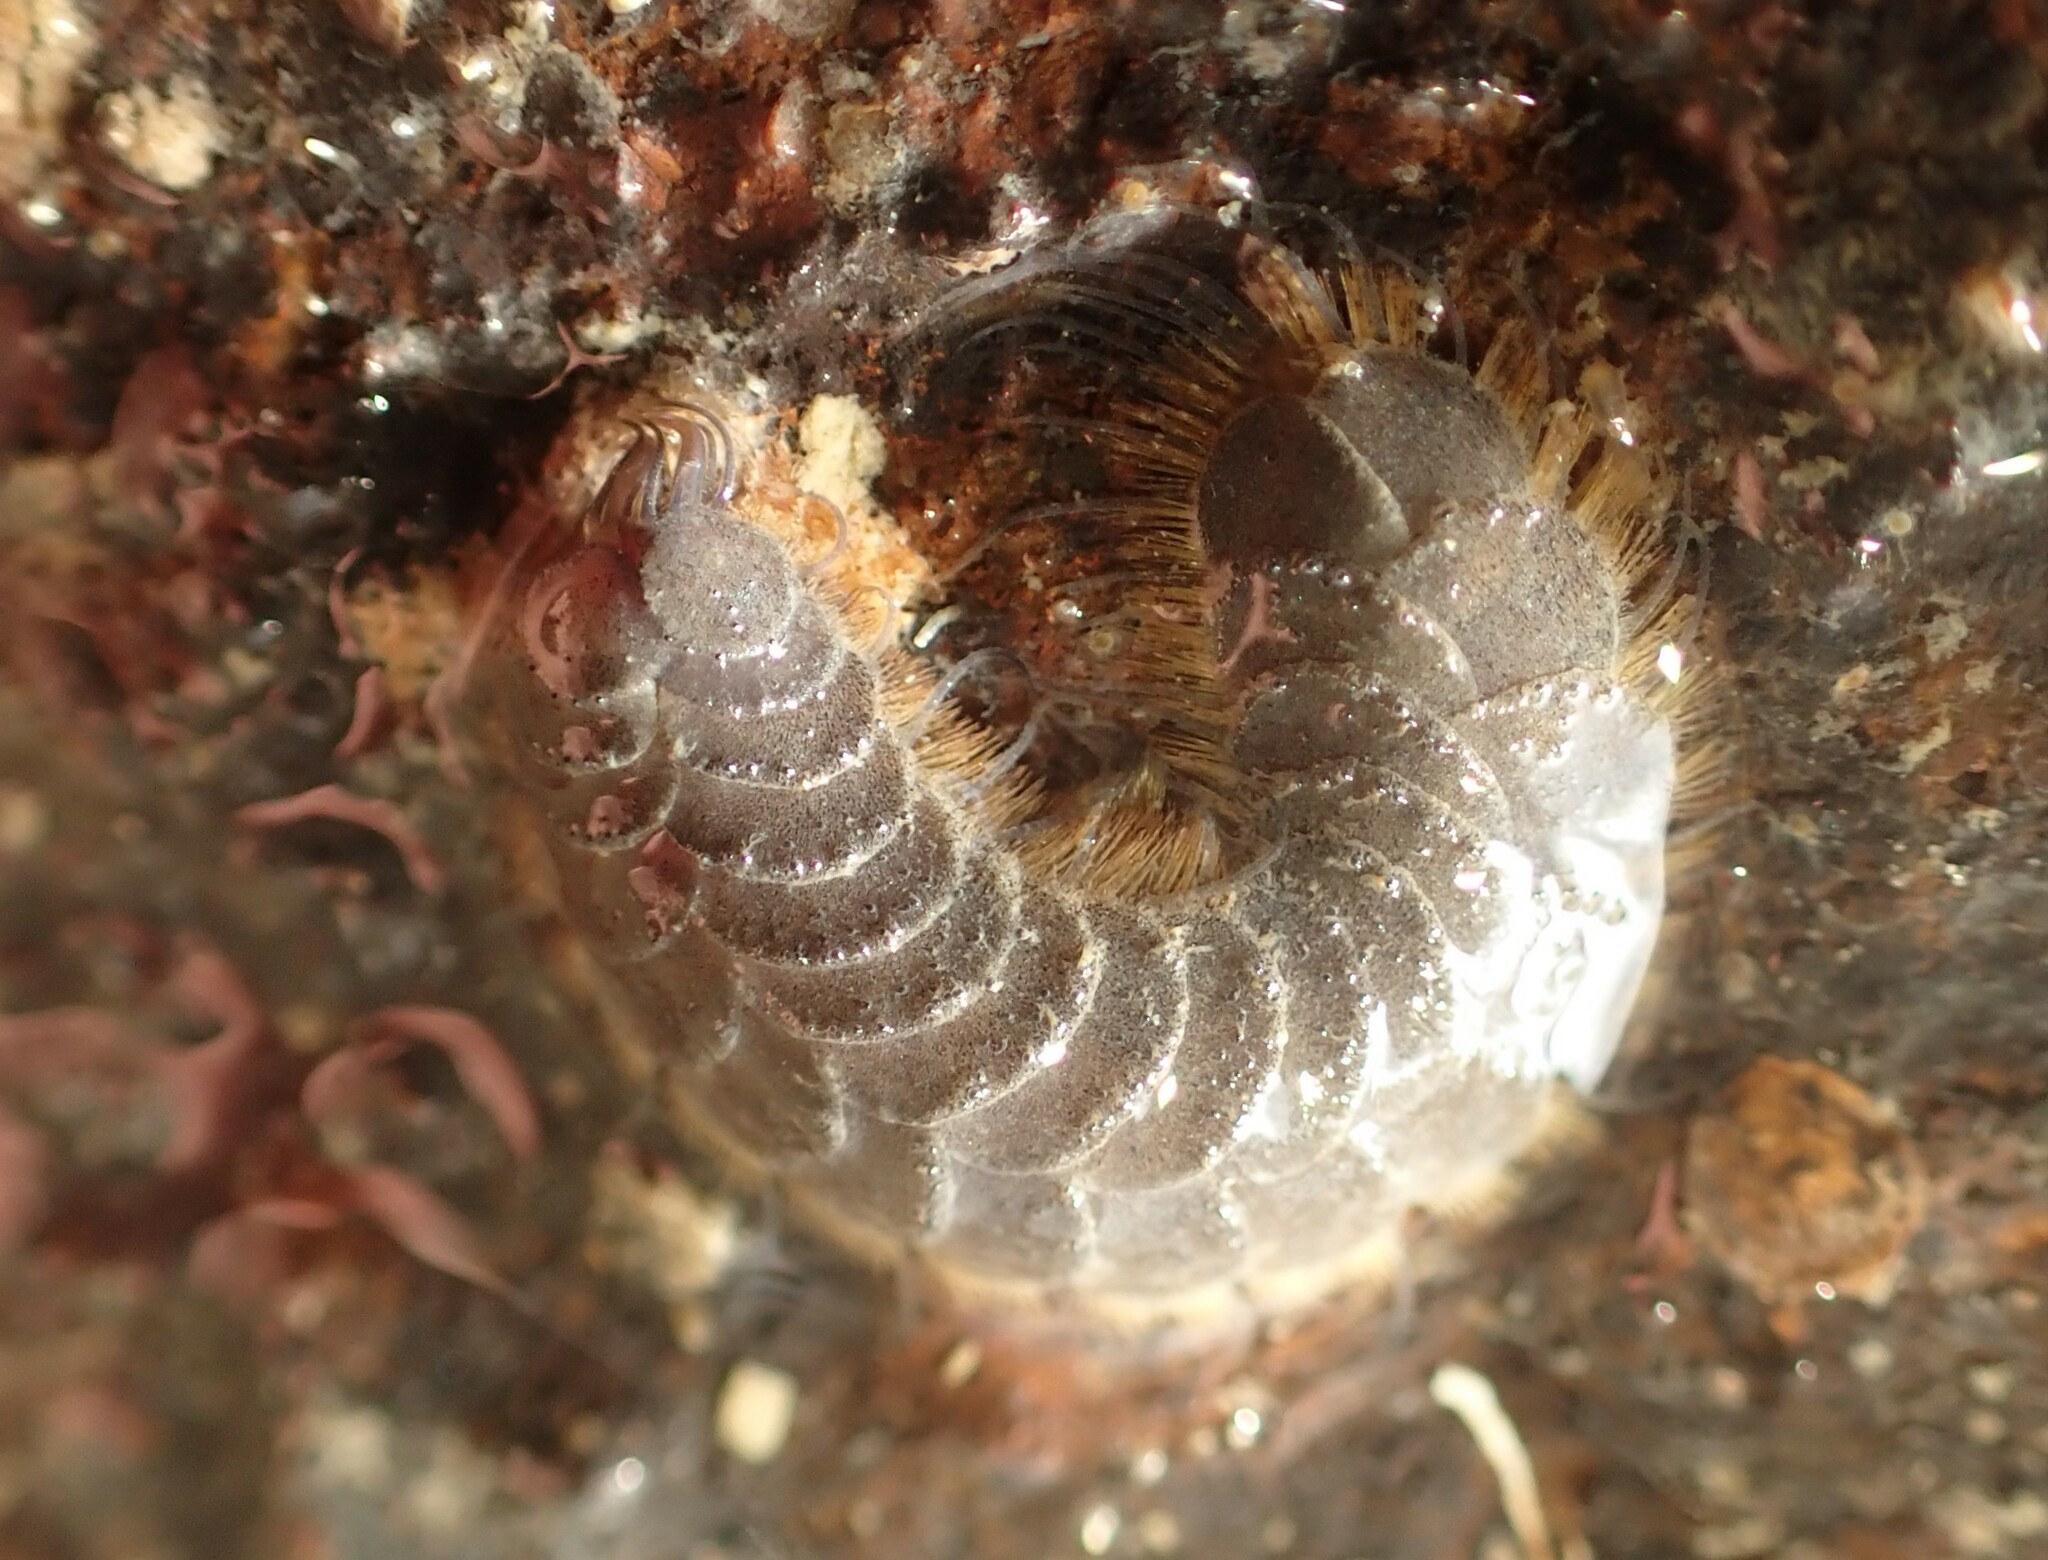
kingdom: Animalia
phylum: Annelida
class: Polychaeta
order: Phyllodocida
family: Polynoidae
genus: Paralepidonotus
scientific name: Paralepidonotus ampulliferus
